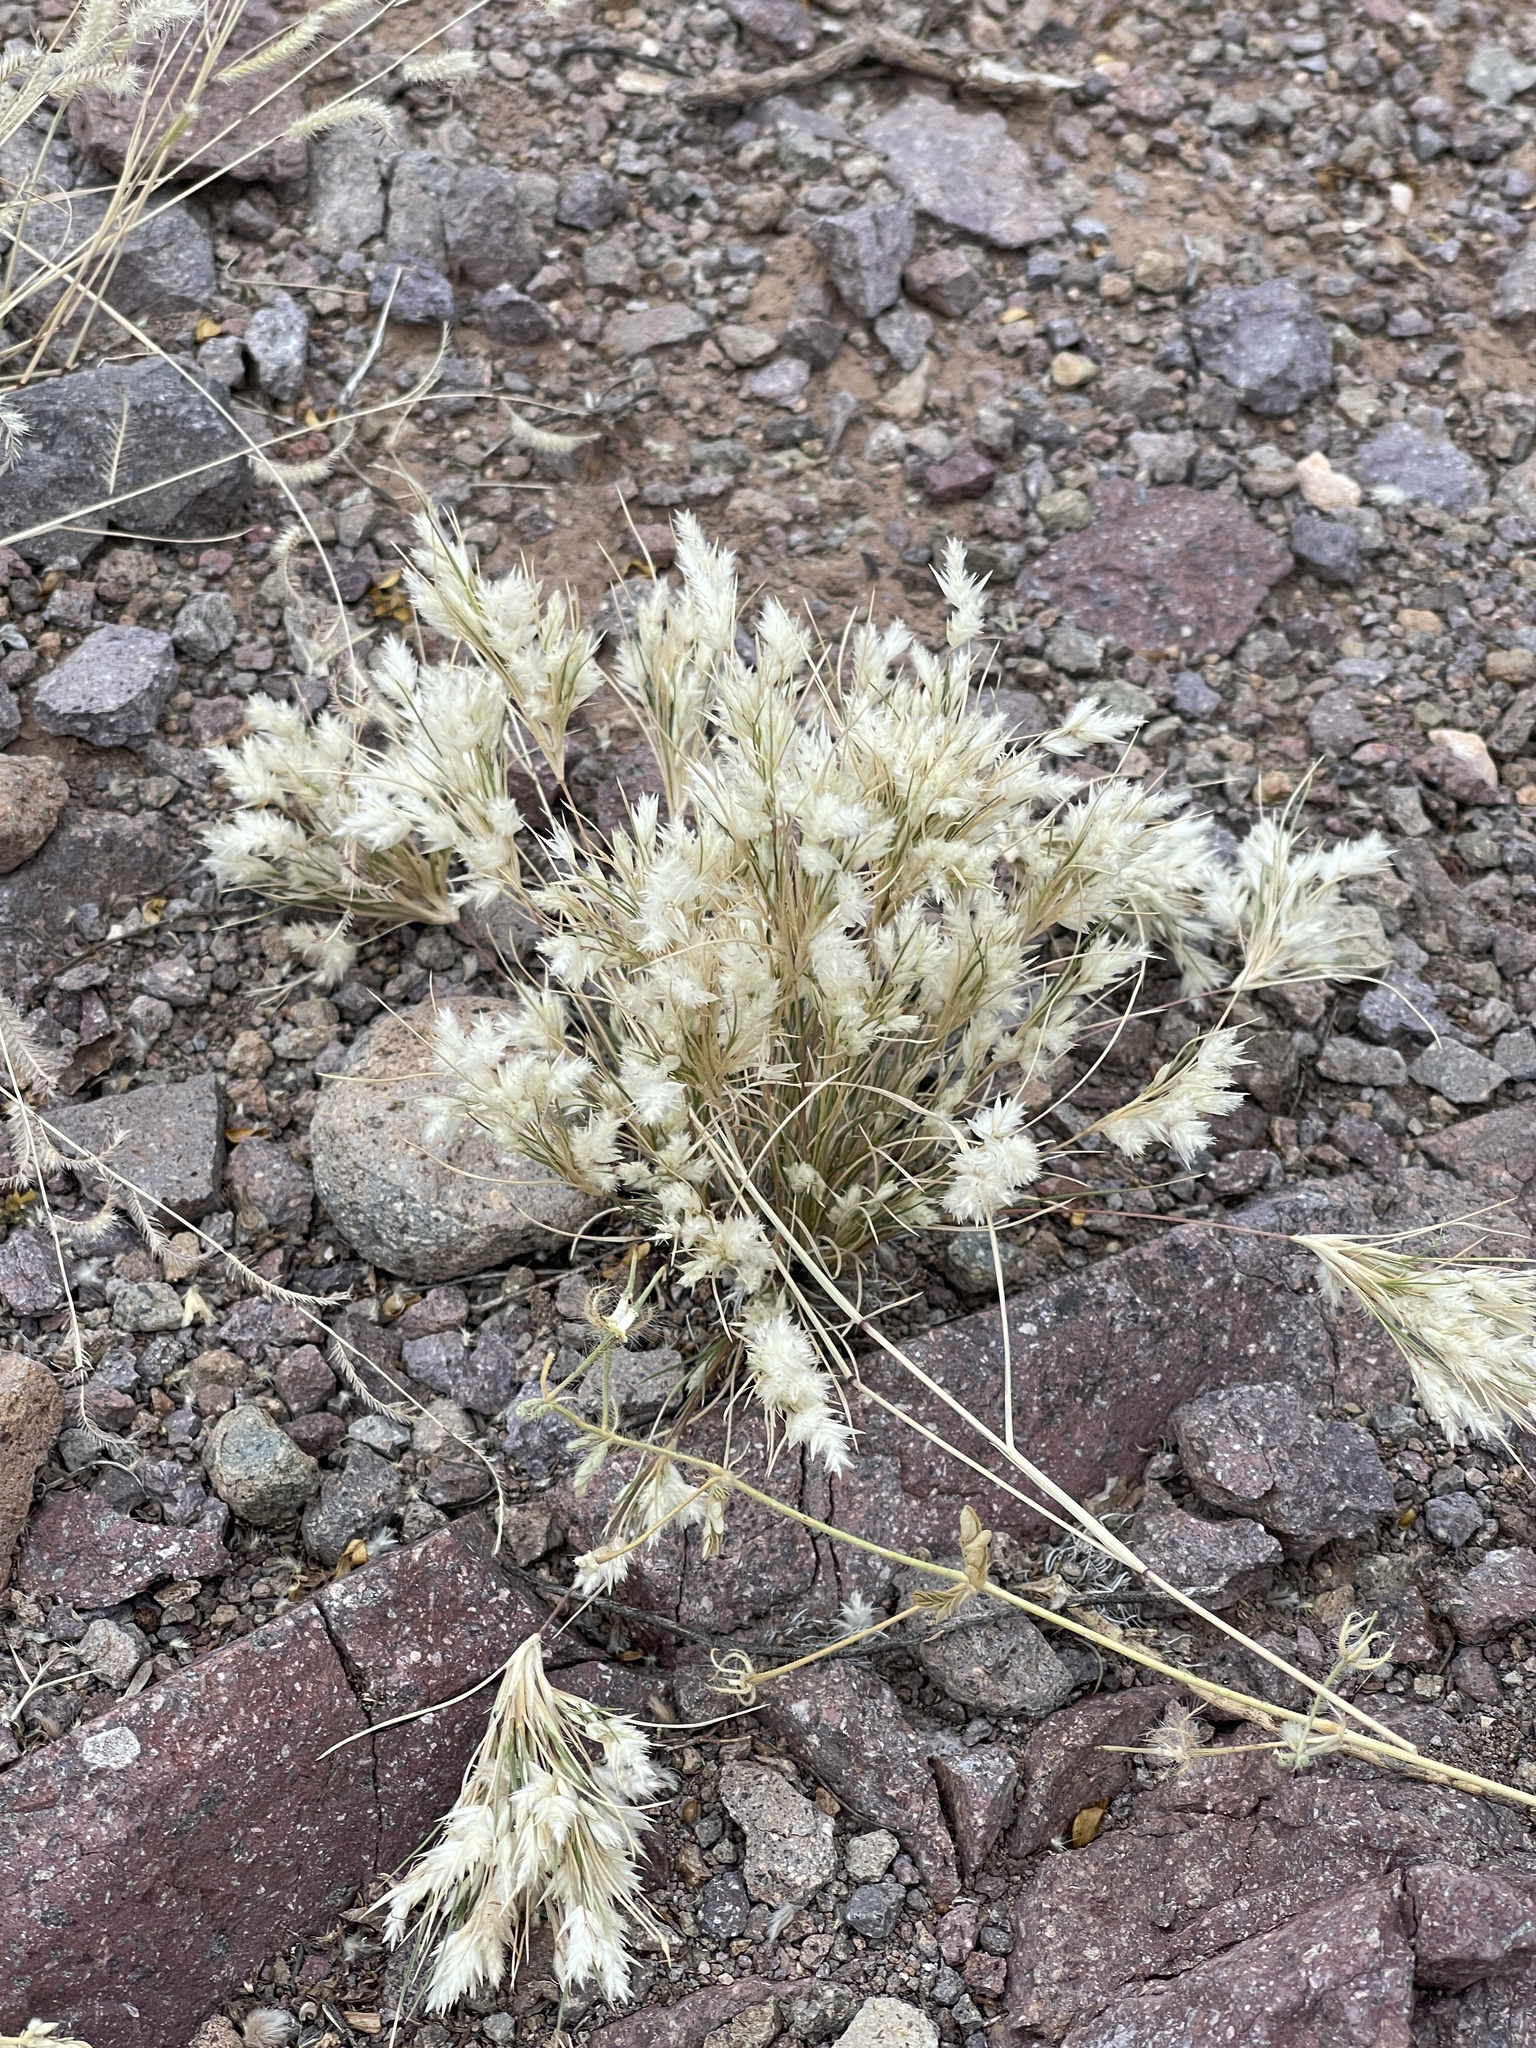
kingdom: Plantae
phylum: Tracheophyta
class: Liliopsida
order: Poales
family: Poaceae
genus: Dasyochloa
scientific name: Dasyochloa pulchella
